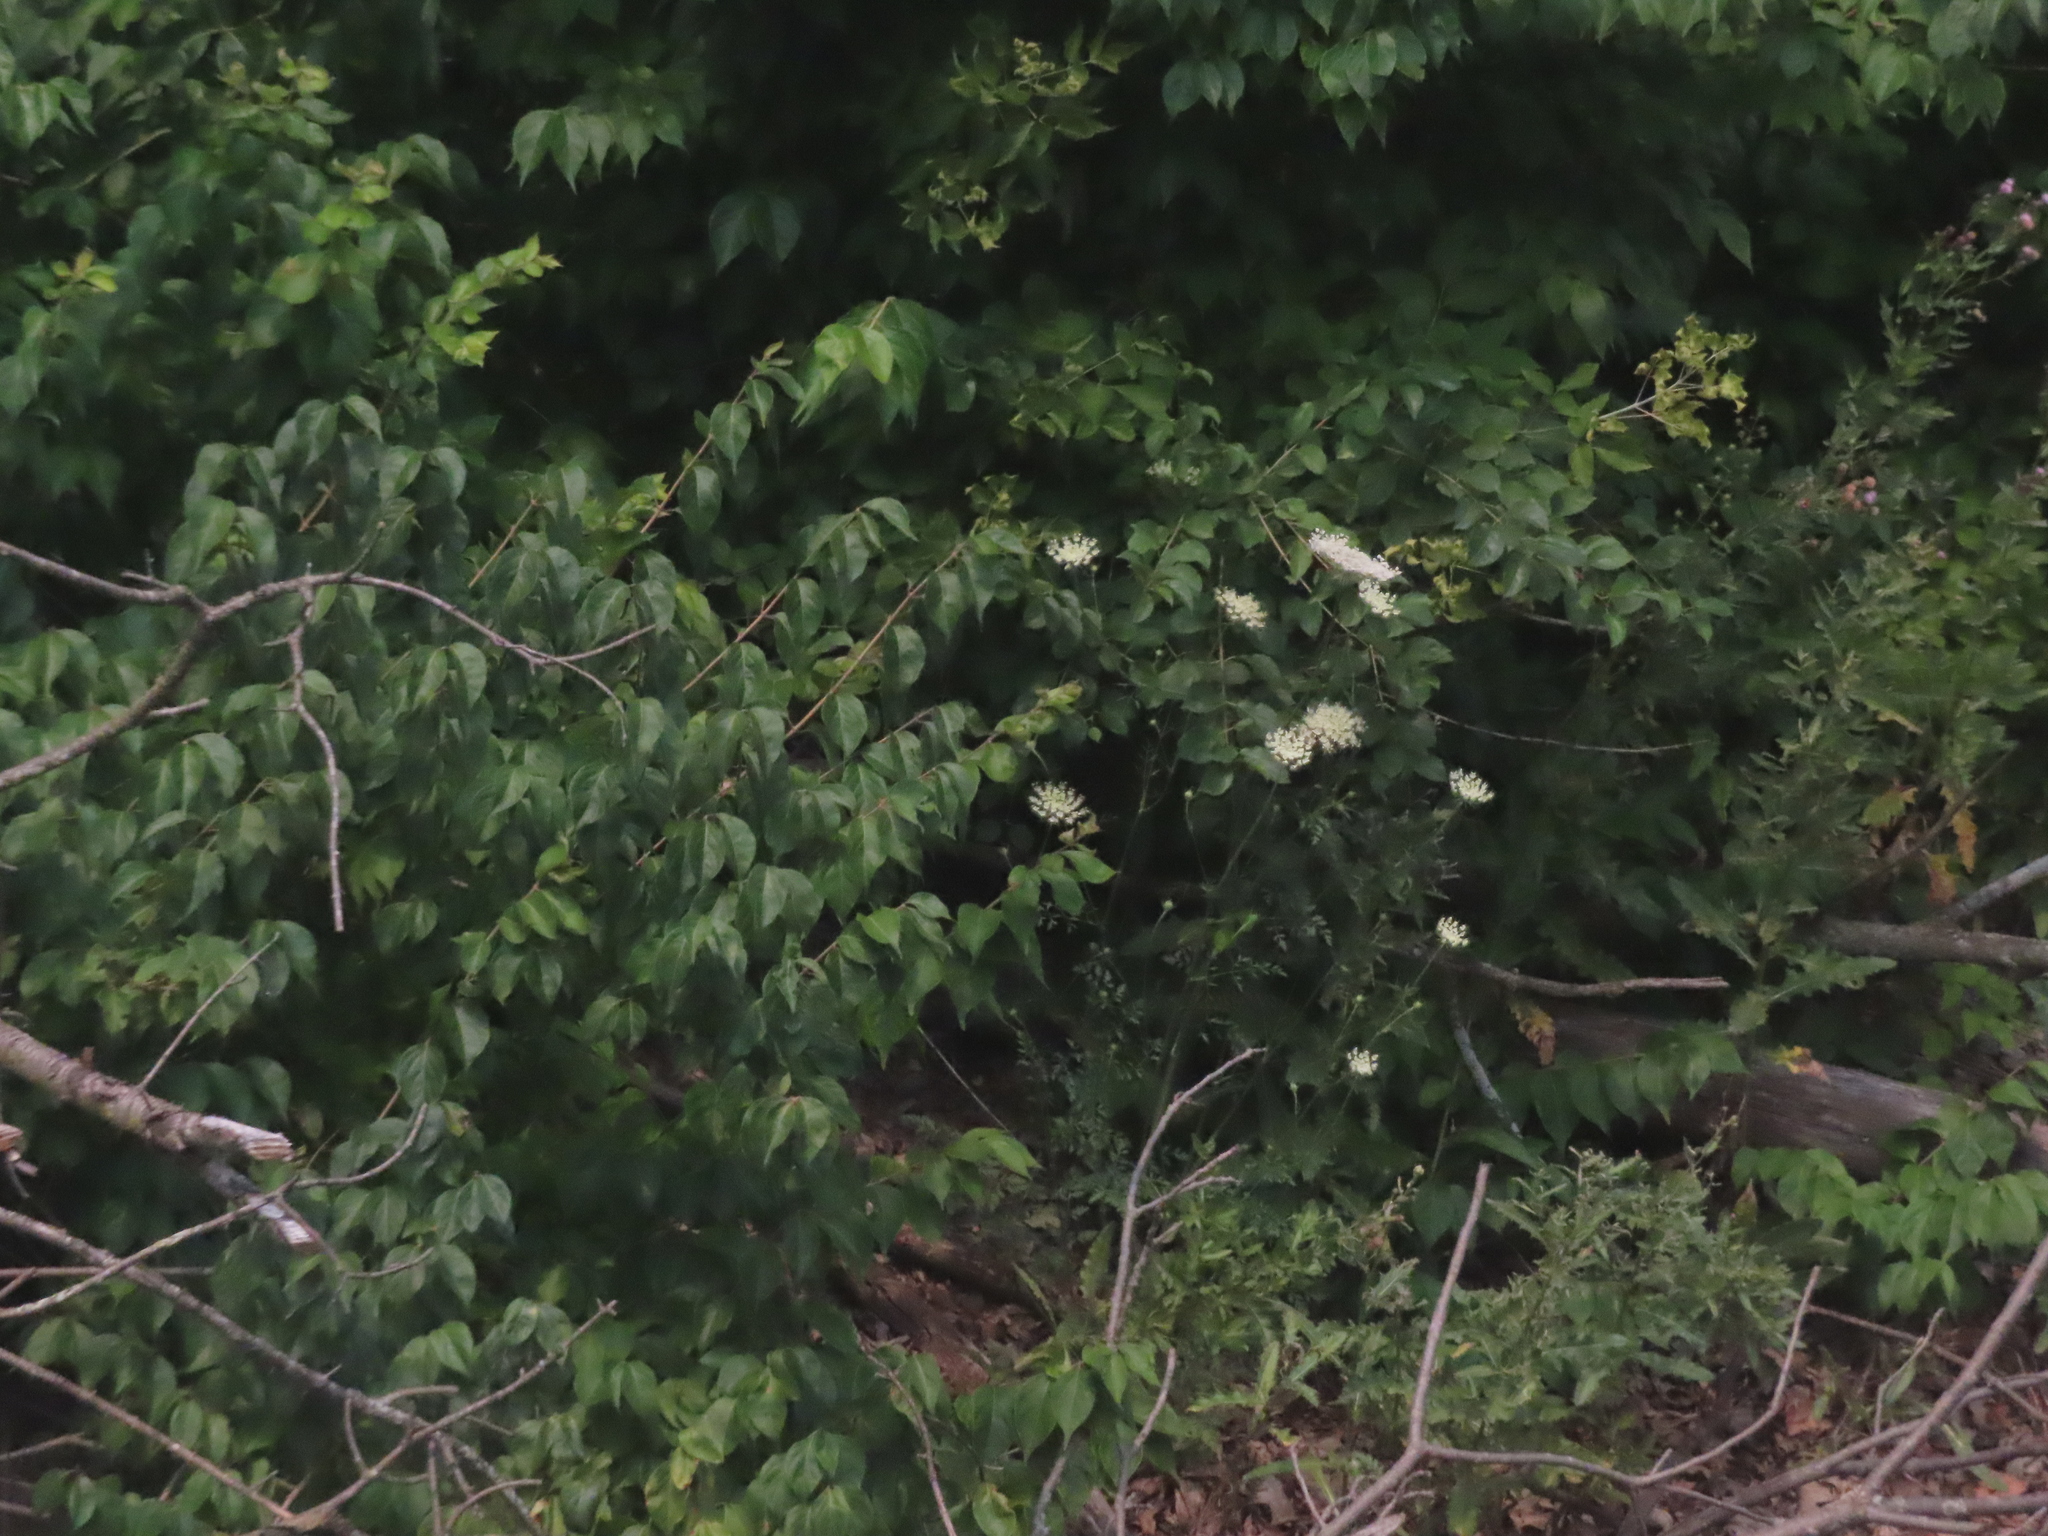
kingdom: Plantae
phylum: Tracheophyta
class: Magnoliopsida
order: Apiales
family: Apiaceae
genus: Daucus
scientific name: Daucus carota
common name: Wild carrot
